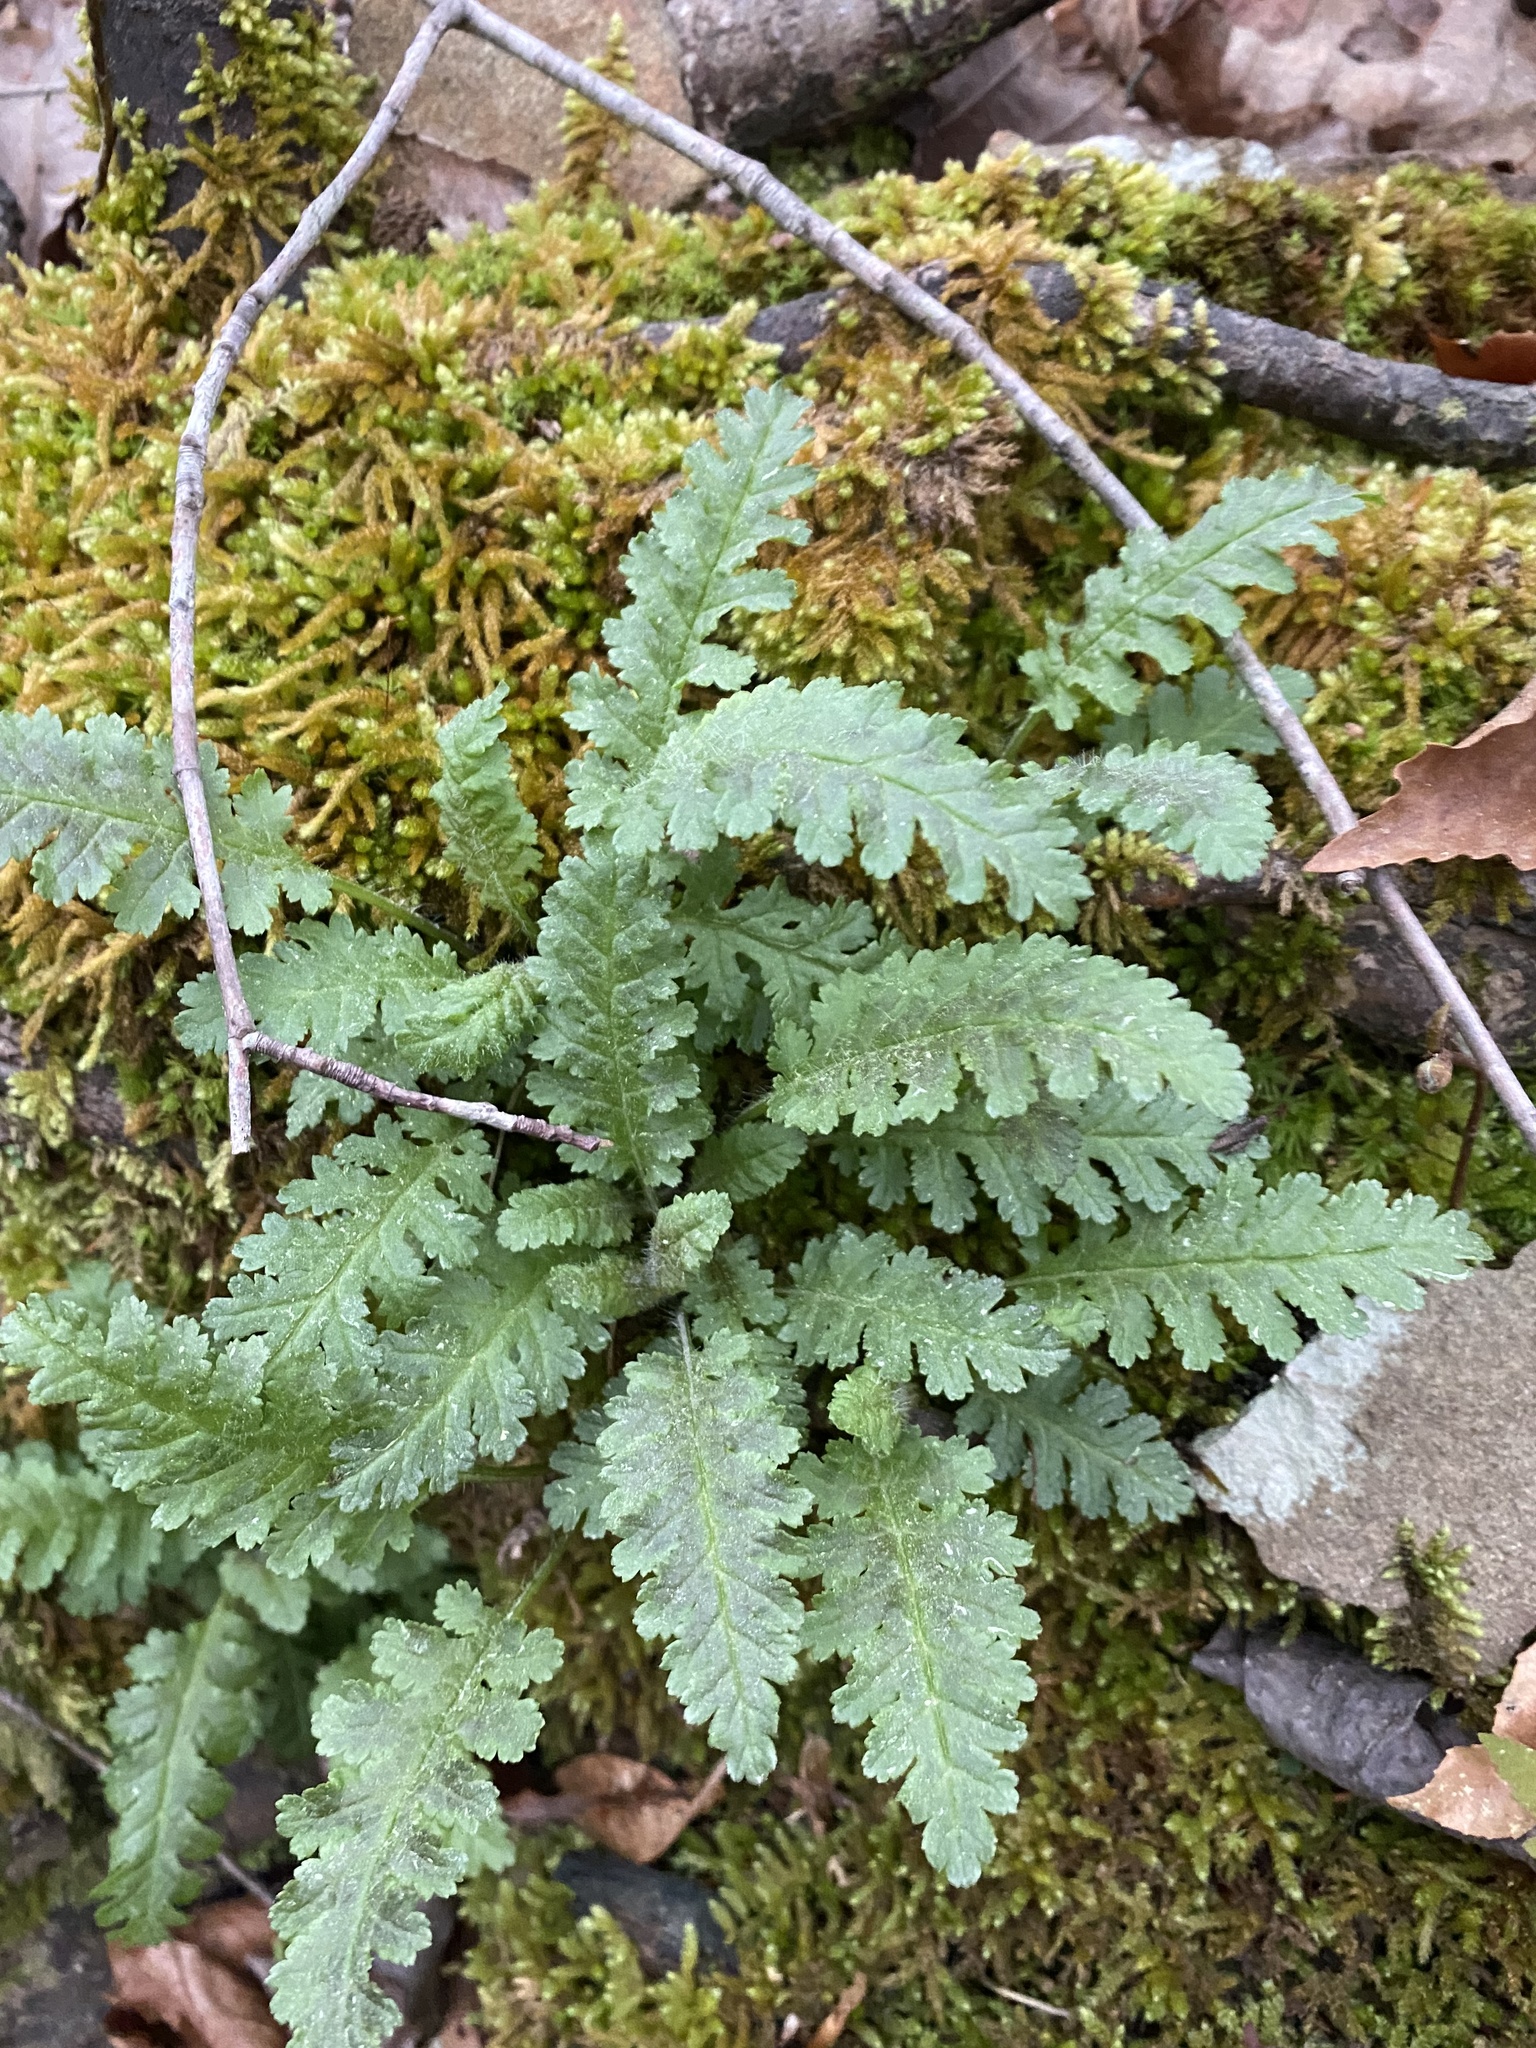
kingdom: Plantae
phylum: Tracheophyta
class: Magnoliopsida
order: Lamiales
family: Orobanchaceae
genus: Pedicularis
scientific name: Pedicularis canadensis
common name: Early lousewort
